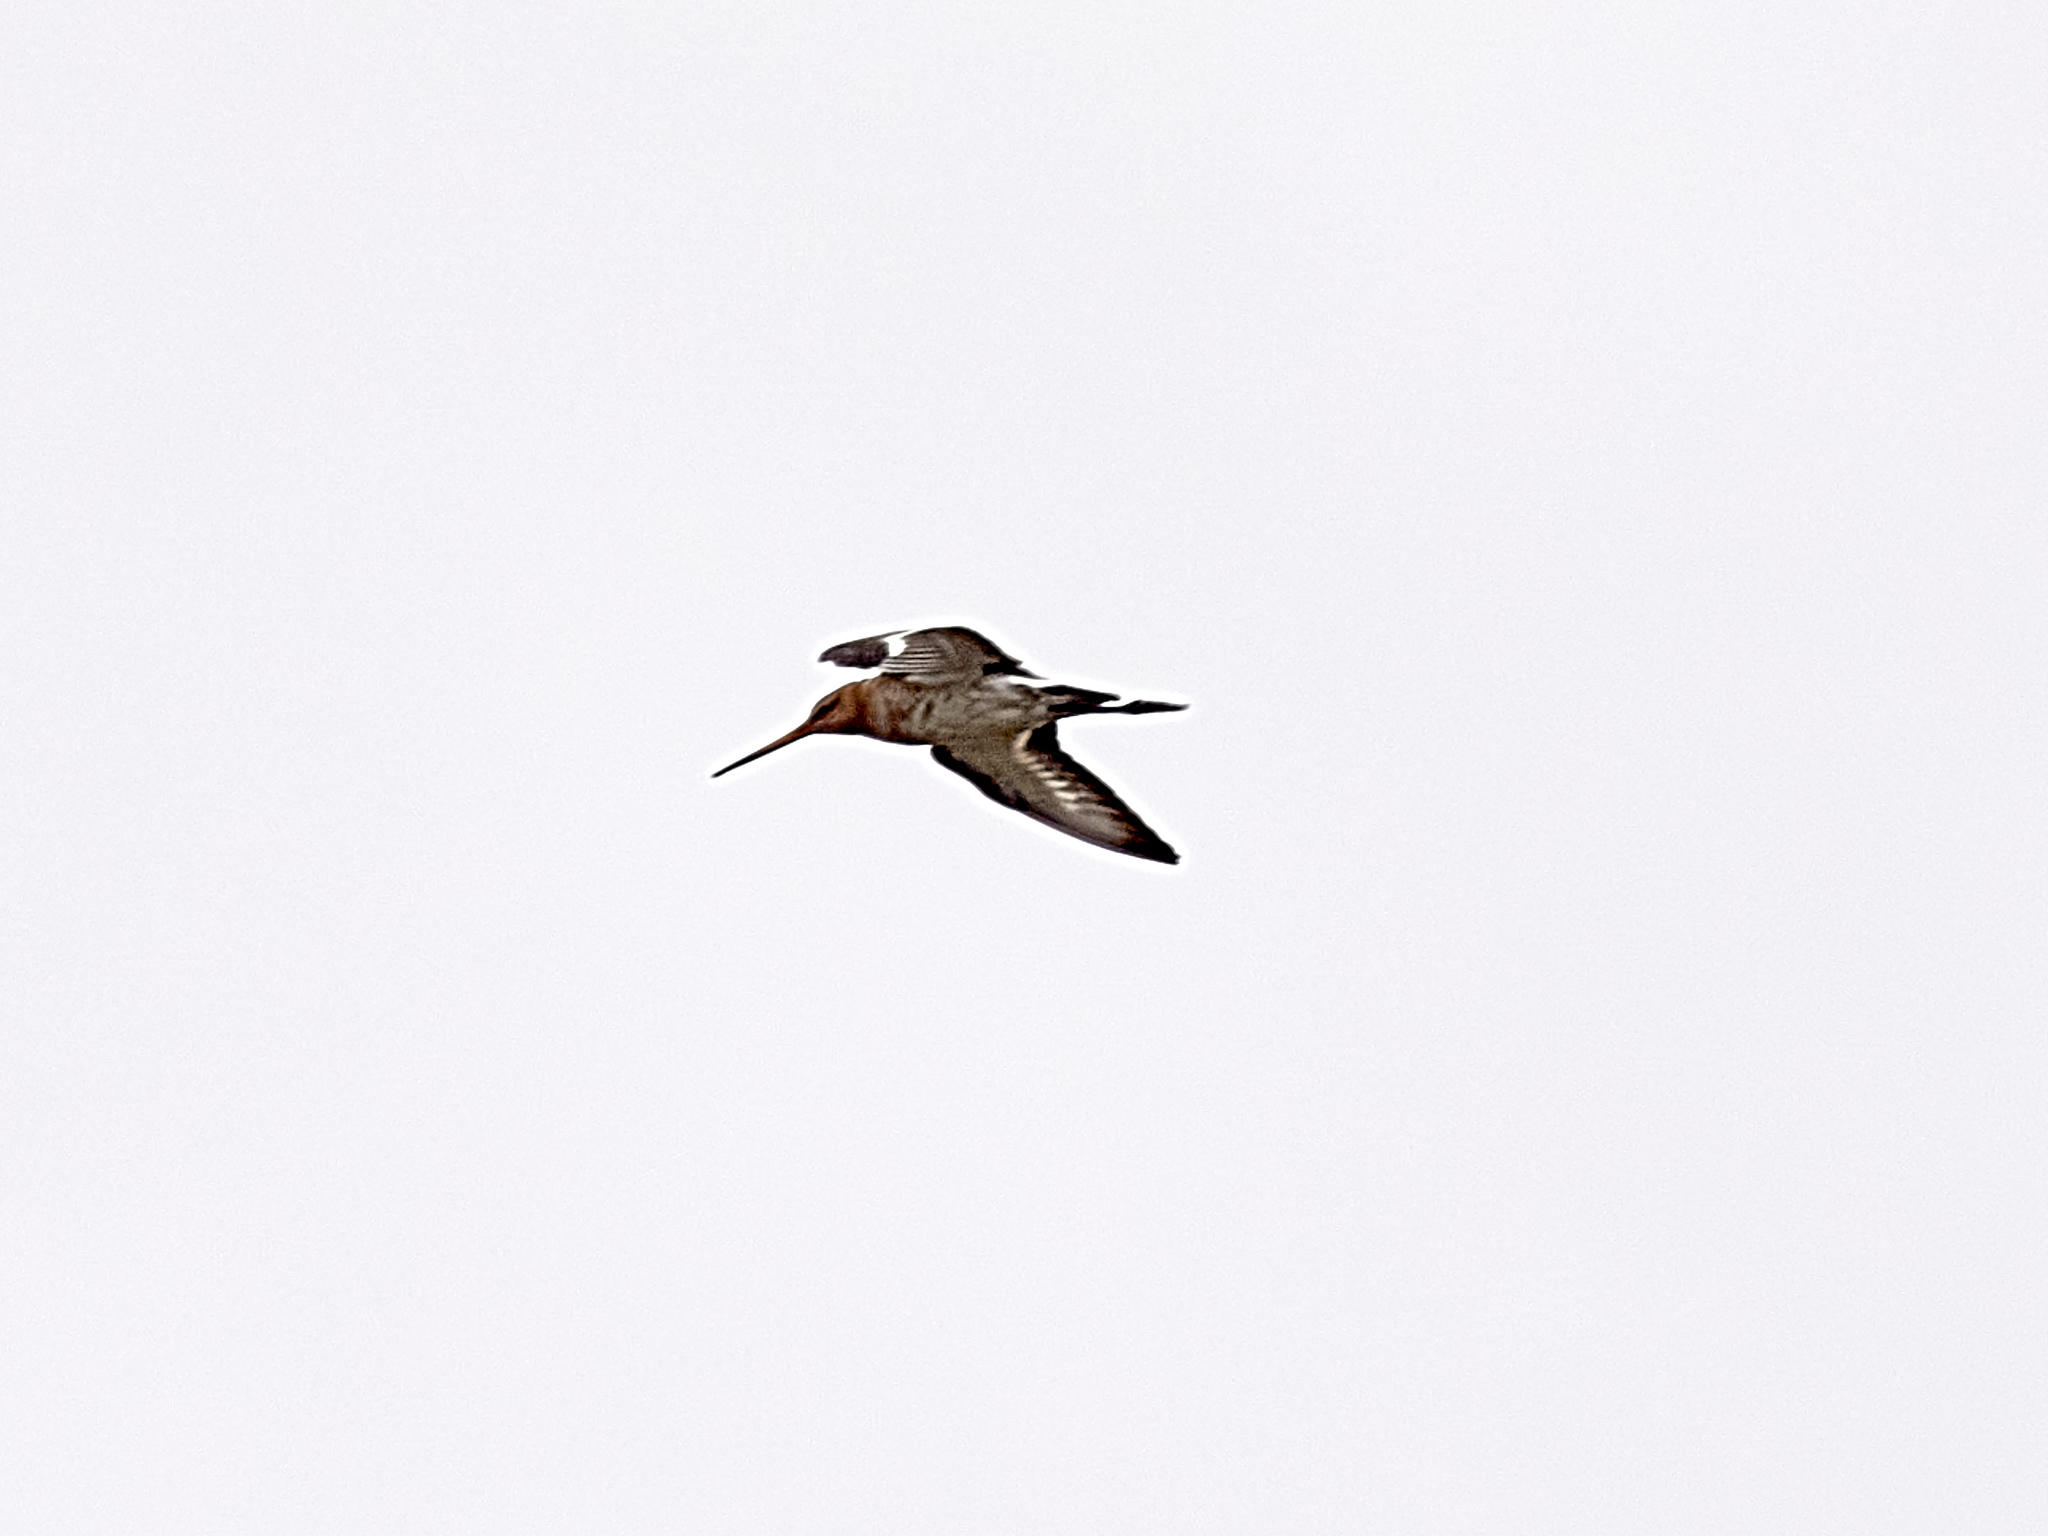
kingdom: Animalia
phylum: Chordata
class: Aves
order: Charadriiformes
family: Scolopacidae
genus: Limosa
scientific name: Limosa limosa
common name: Black-tailed godwit
